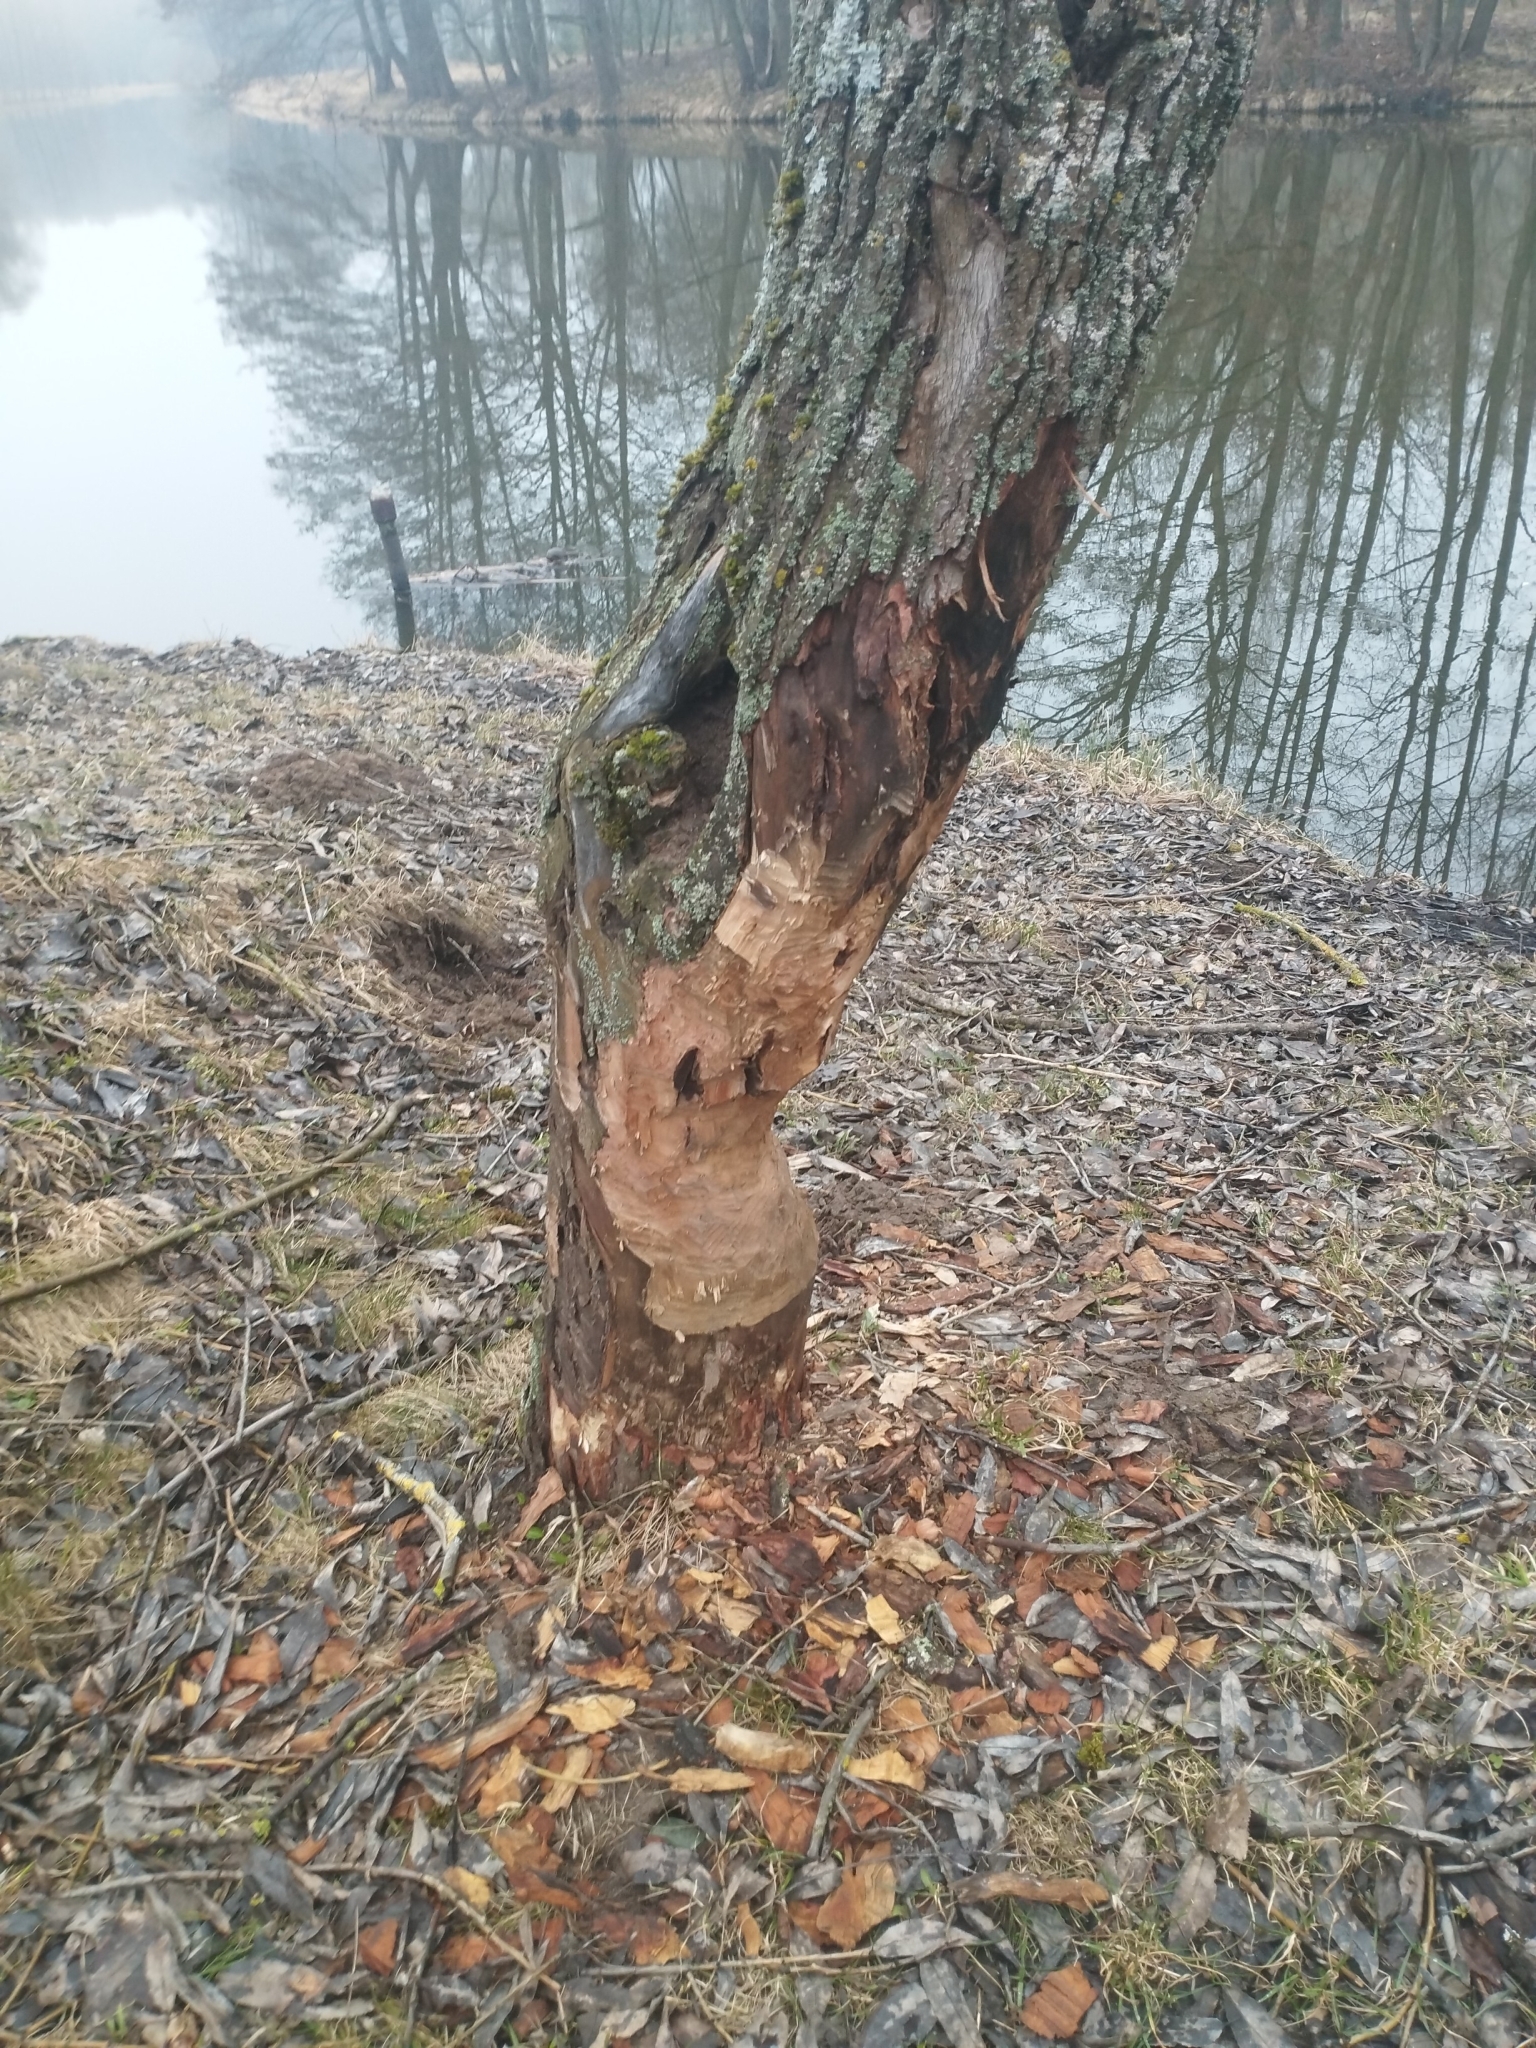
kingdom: Animalia
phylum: Chordata
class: Mammalia
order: Rodentia
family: Castoridae
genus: Castor
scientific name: Castor fiber
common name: Eurasian beaver
